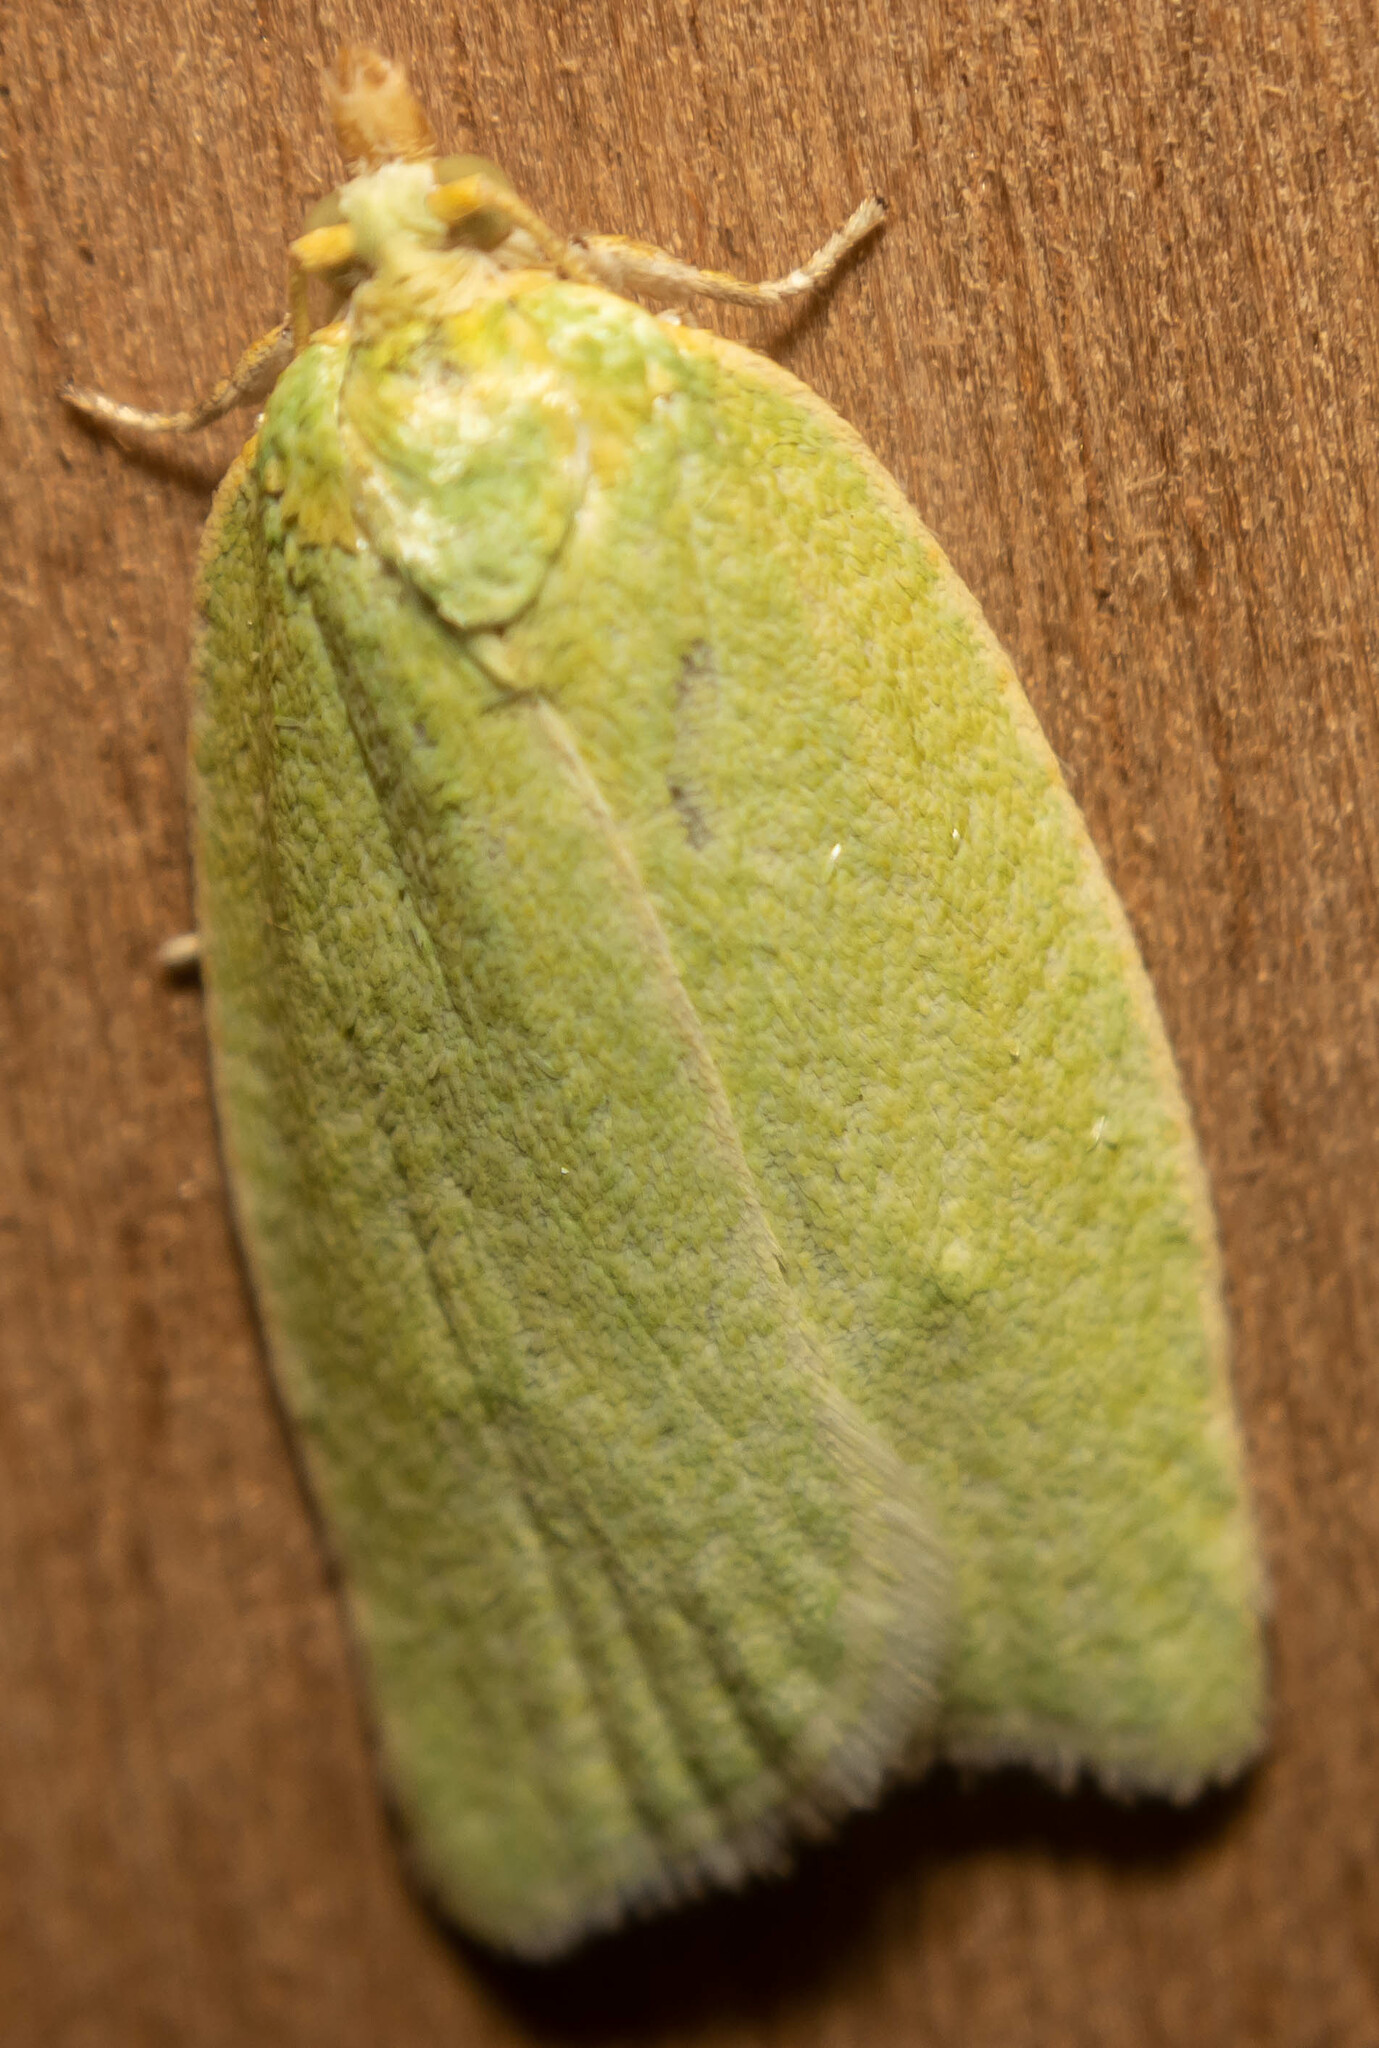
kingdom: Animalia
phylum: Arthropoda
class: Insecta
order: Lepidoptera
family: Tortricidae
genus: Tortrix
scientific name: Tortrix viridana
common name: Green oak tortrix
